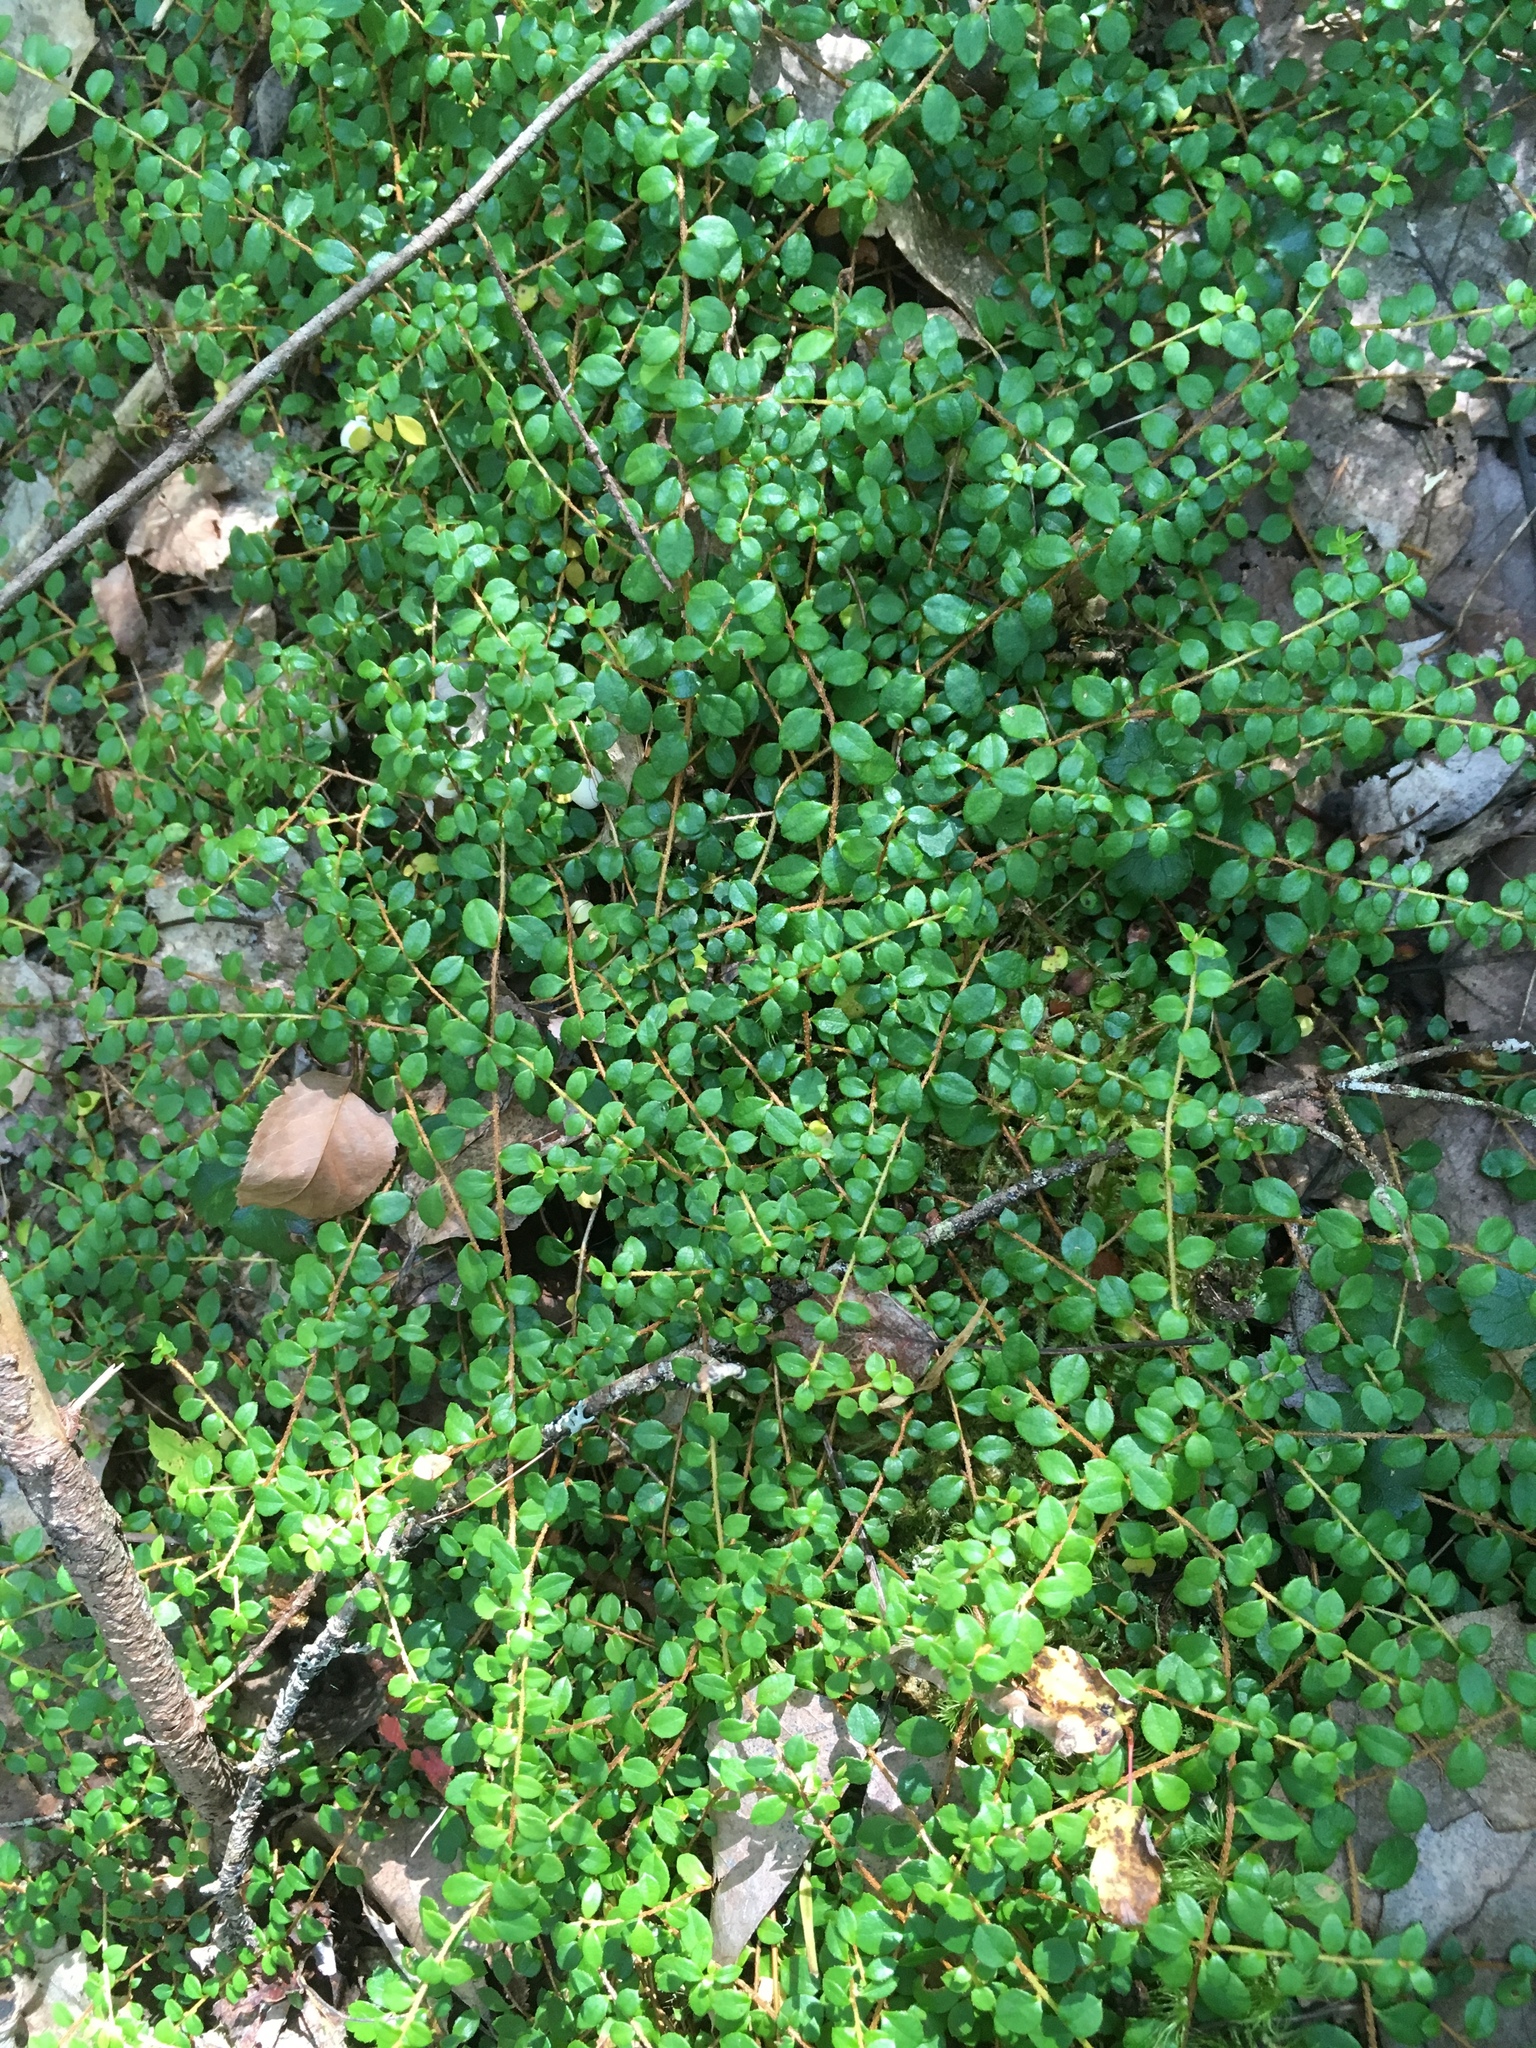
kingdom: Plantae
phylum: Tracheophyta
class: Magnoliopsida
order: Ericales
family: Ericaceae
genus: Gaultheria
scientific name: Gaultheria hispidula
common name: Cancer wintergreen
